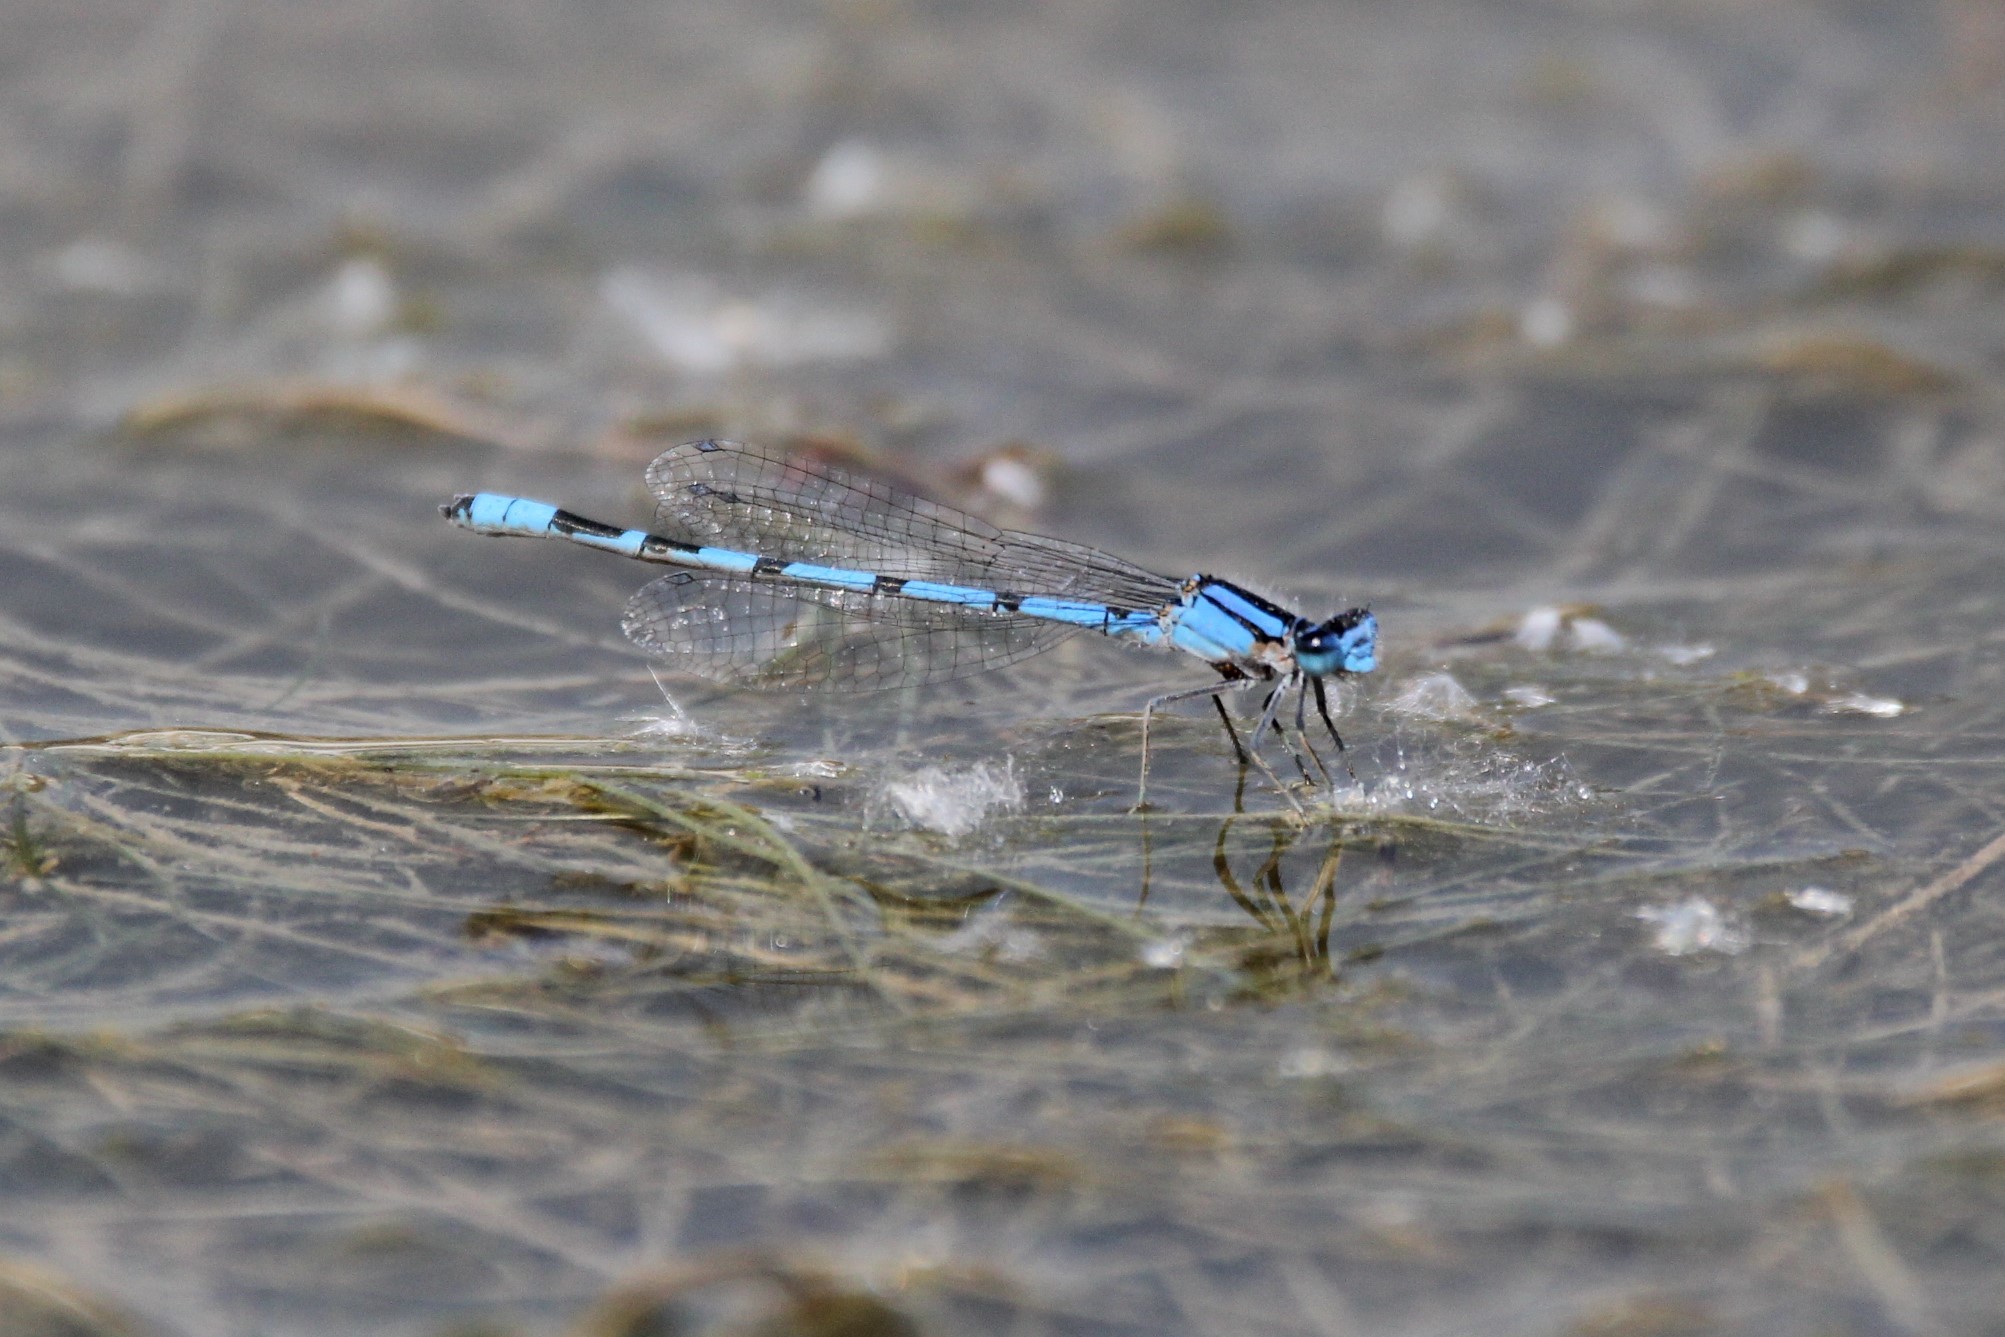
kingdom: Animalia
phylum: Arthropoda
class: Insecta
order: Odonata
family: Coenagrionidae
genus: Enallagma
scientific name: Enallagma civile
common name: Damselfly
